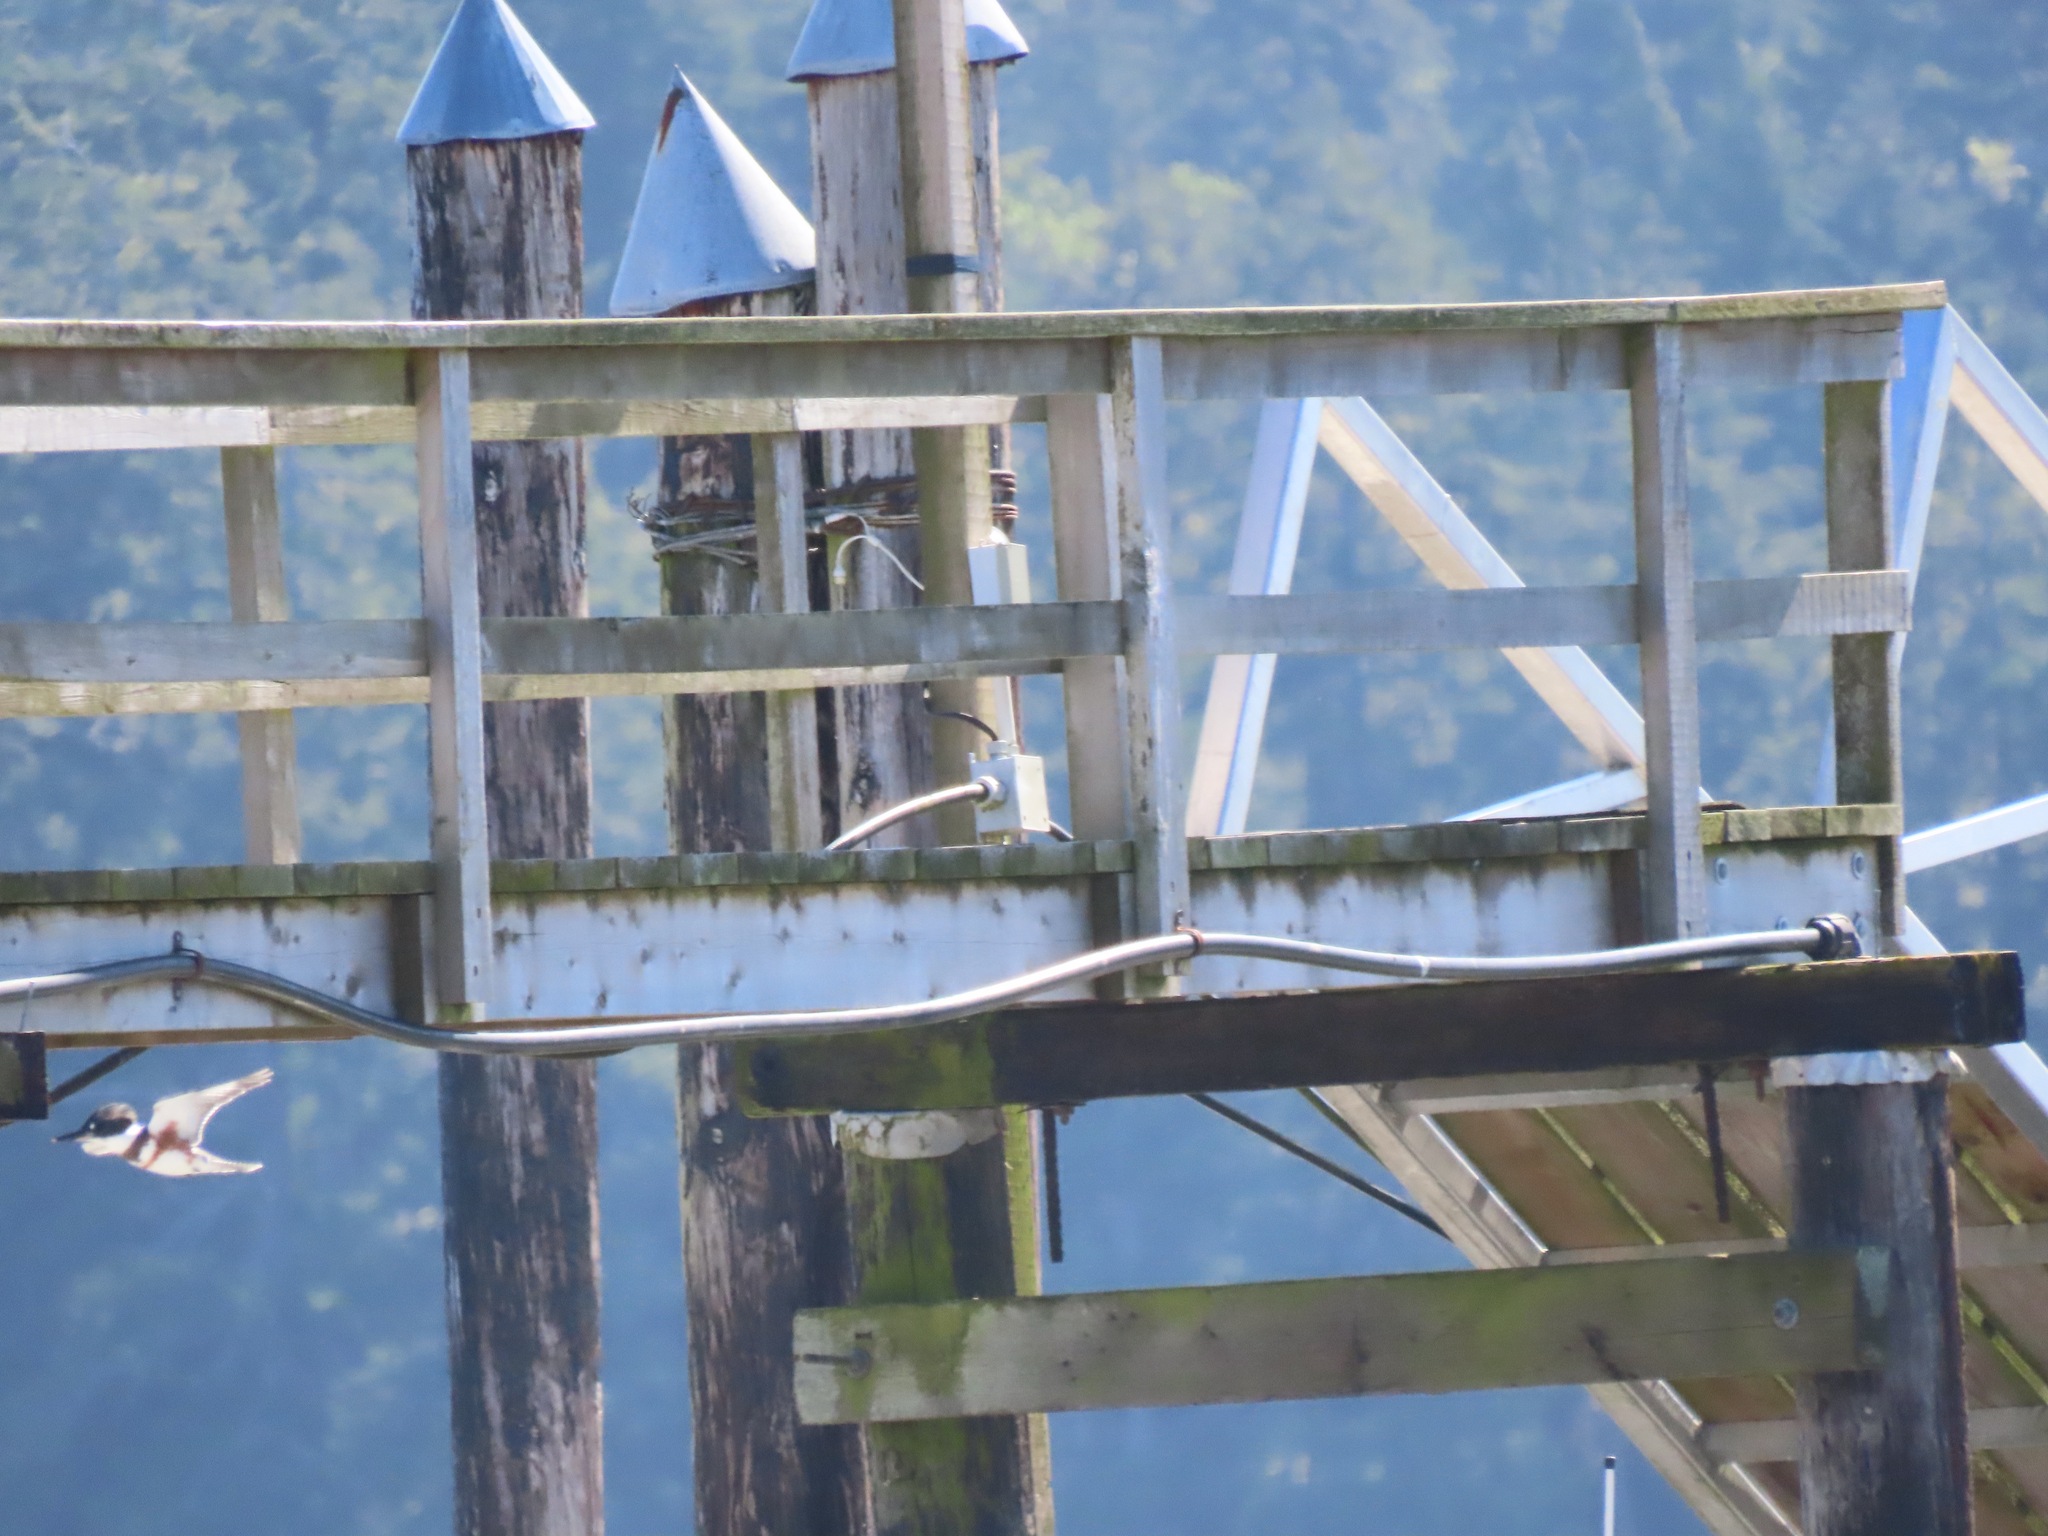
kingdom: Animalia
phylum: Chordata
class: Aves
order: Coraciiformes
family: Alcedinidae
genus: Megaceryle
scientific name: Megaceryle alcyon
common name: Belted kingfisher
